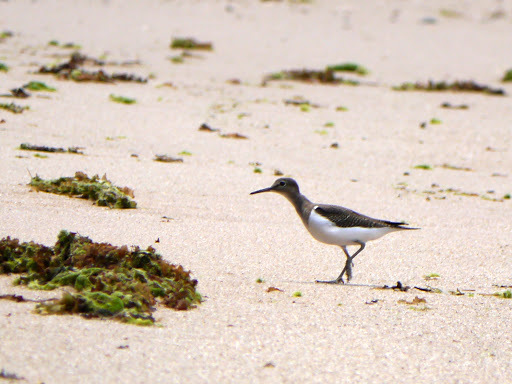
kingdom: Animalia
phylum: Chordata
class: Aves
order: Charadriiformes
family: Scolopacidae
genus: Actitis
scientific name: Actitis hypoleucos
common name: Common sandpiper
